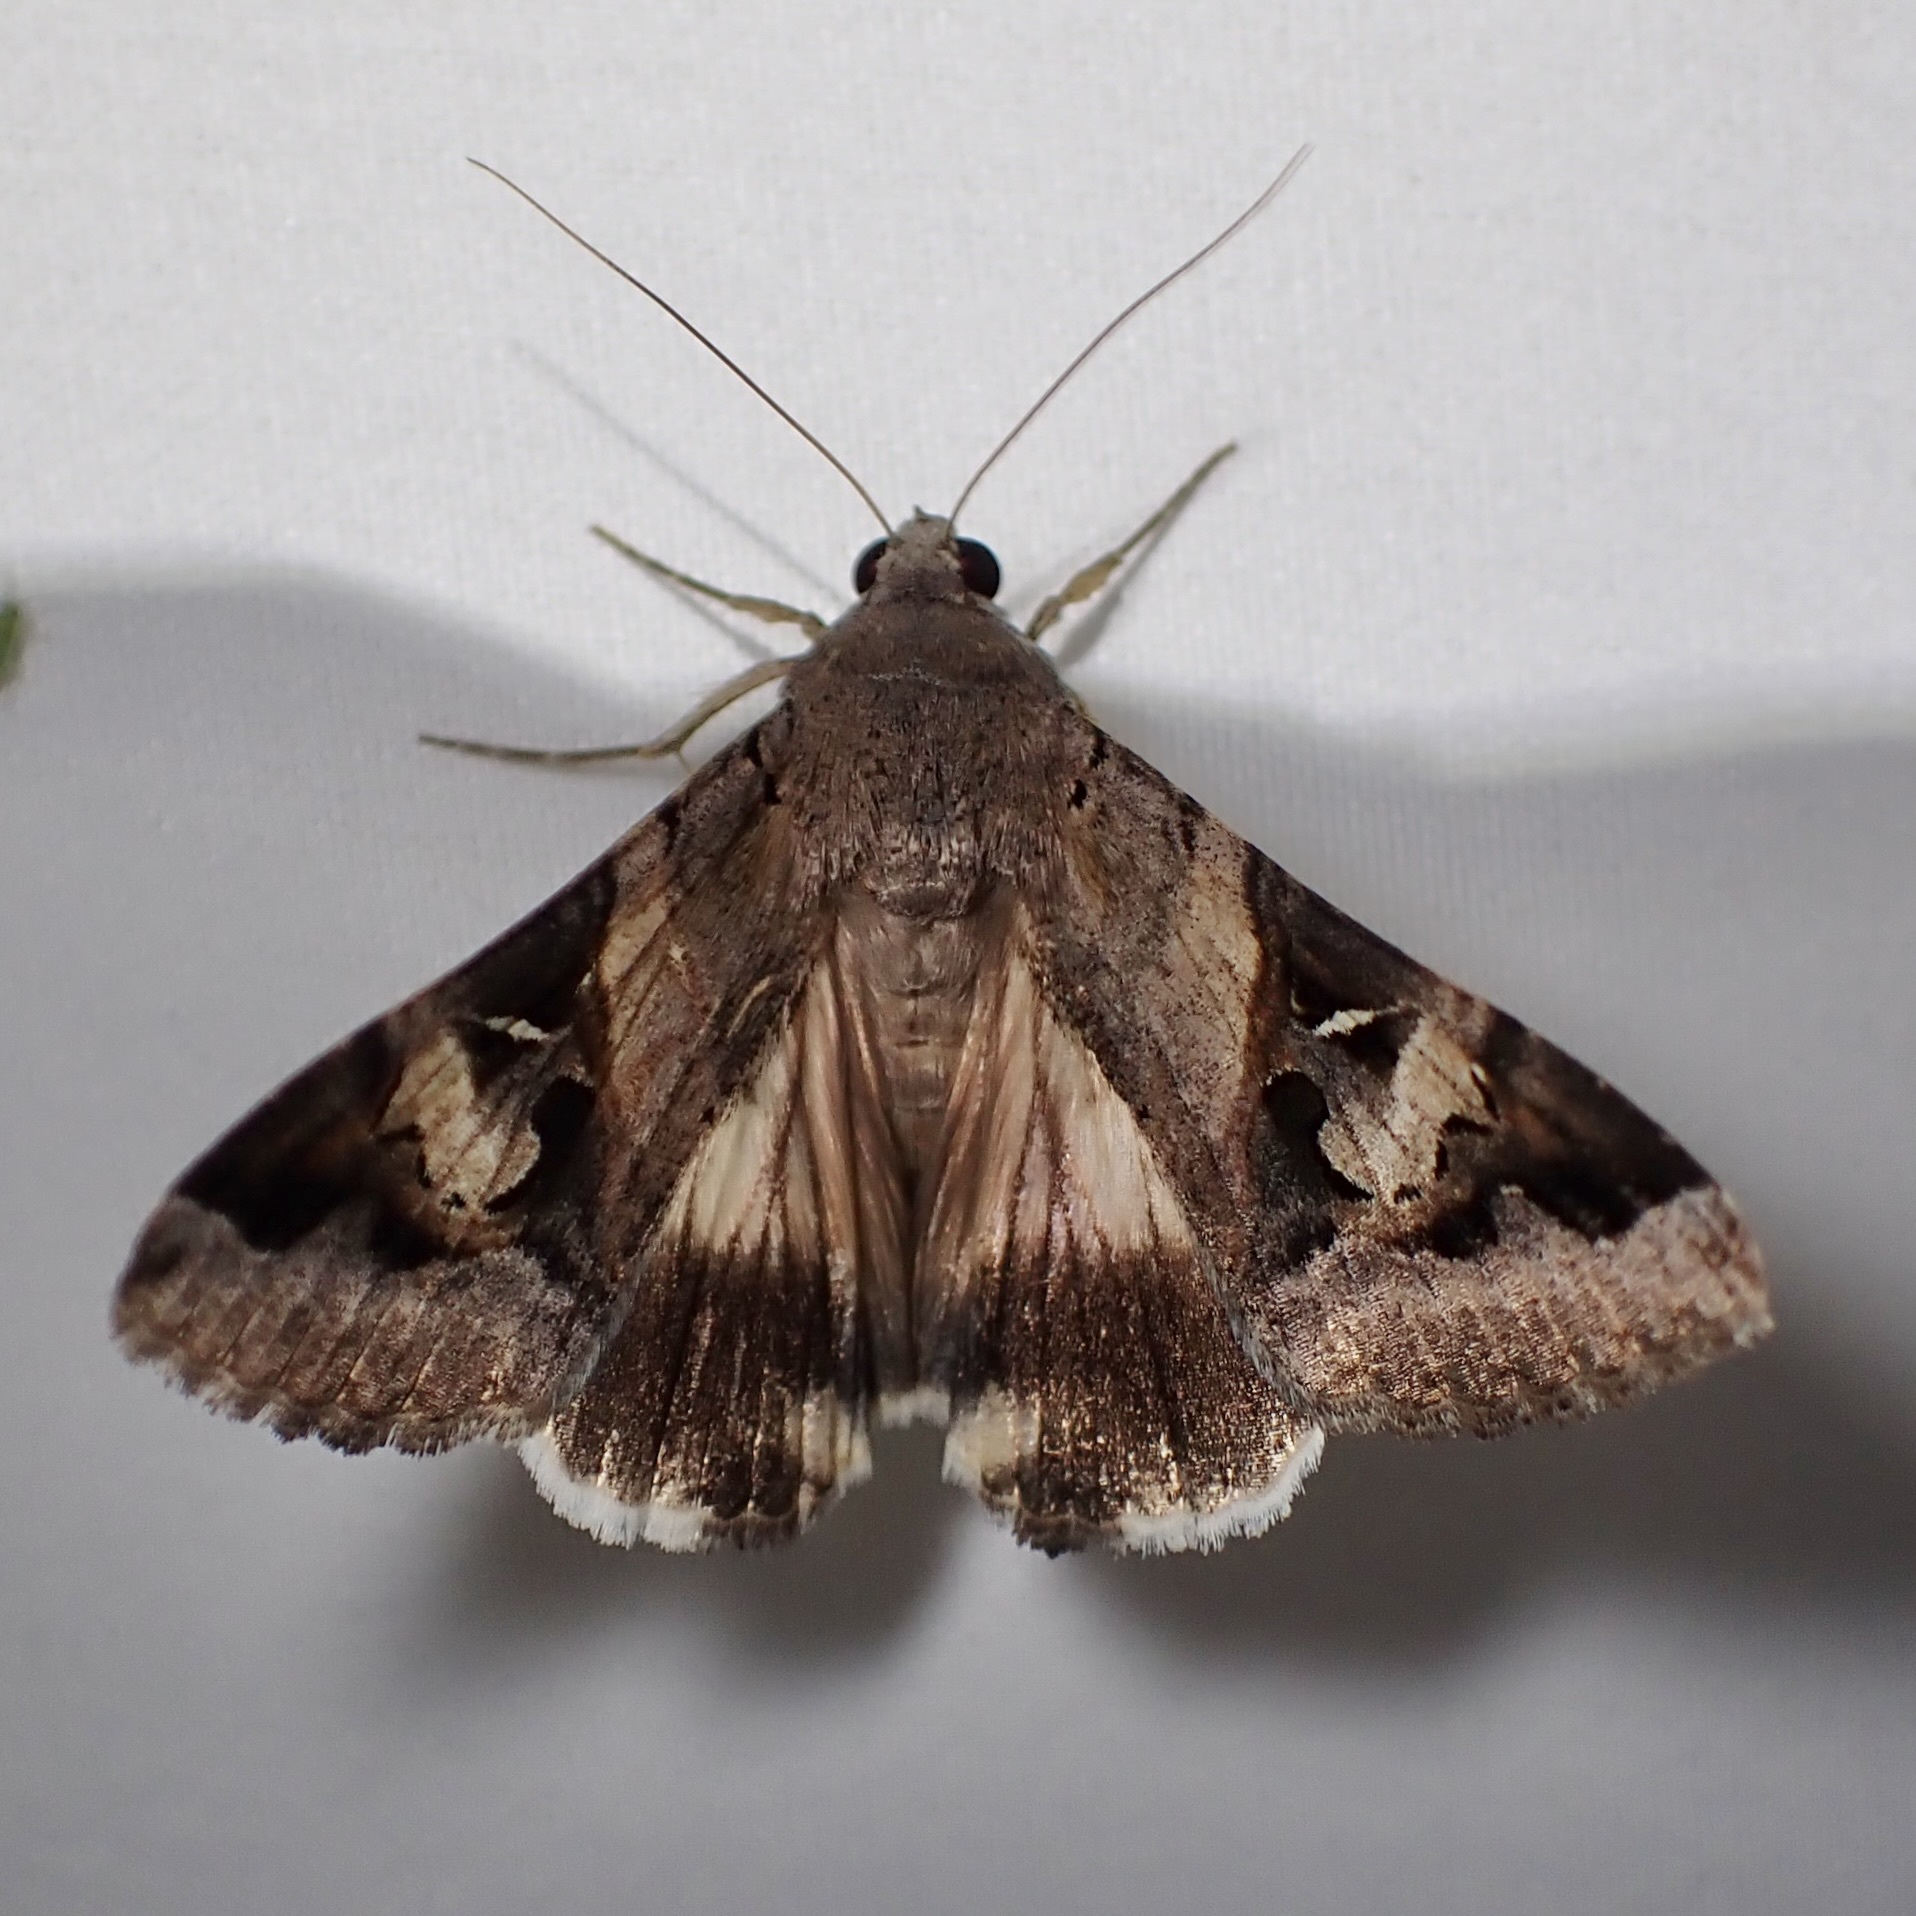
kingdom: Animalia
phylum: Arthropoda
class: Insecta
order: Lepidoptera
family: Erebidae
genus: Melipotis
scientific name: Melipotis indomita
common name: Moth
